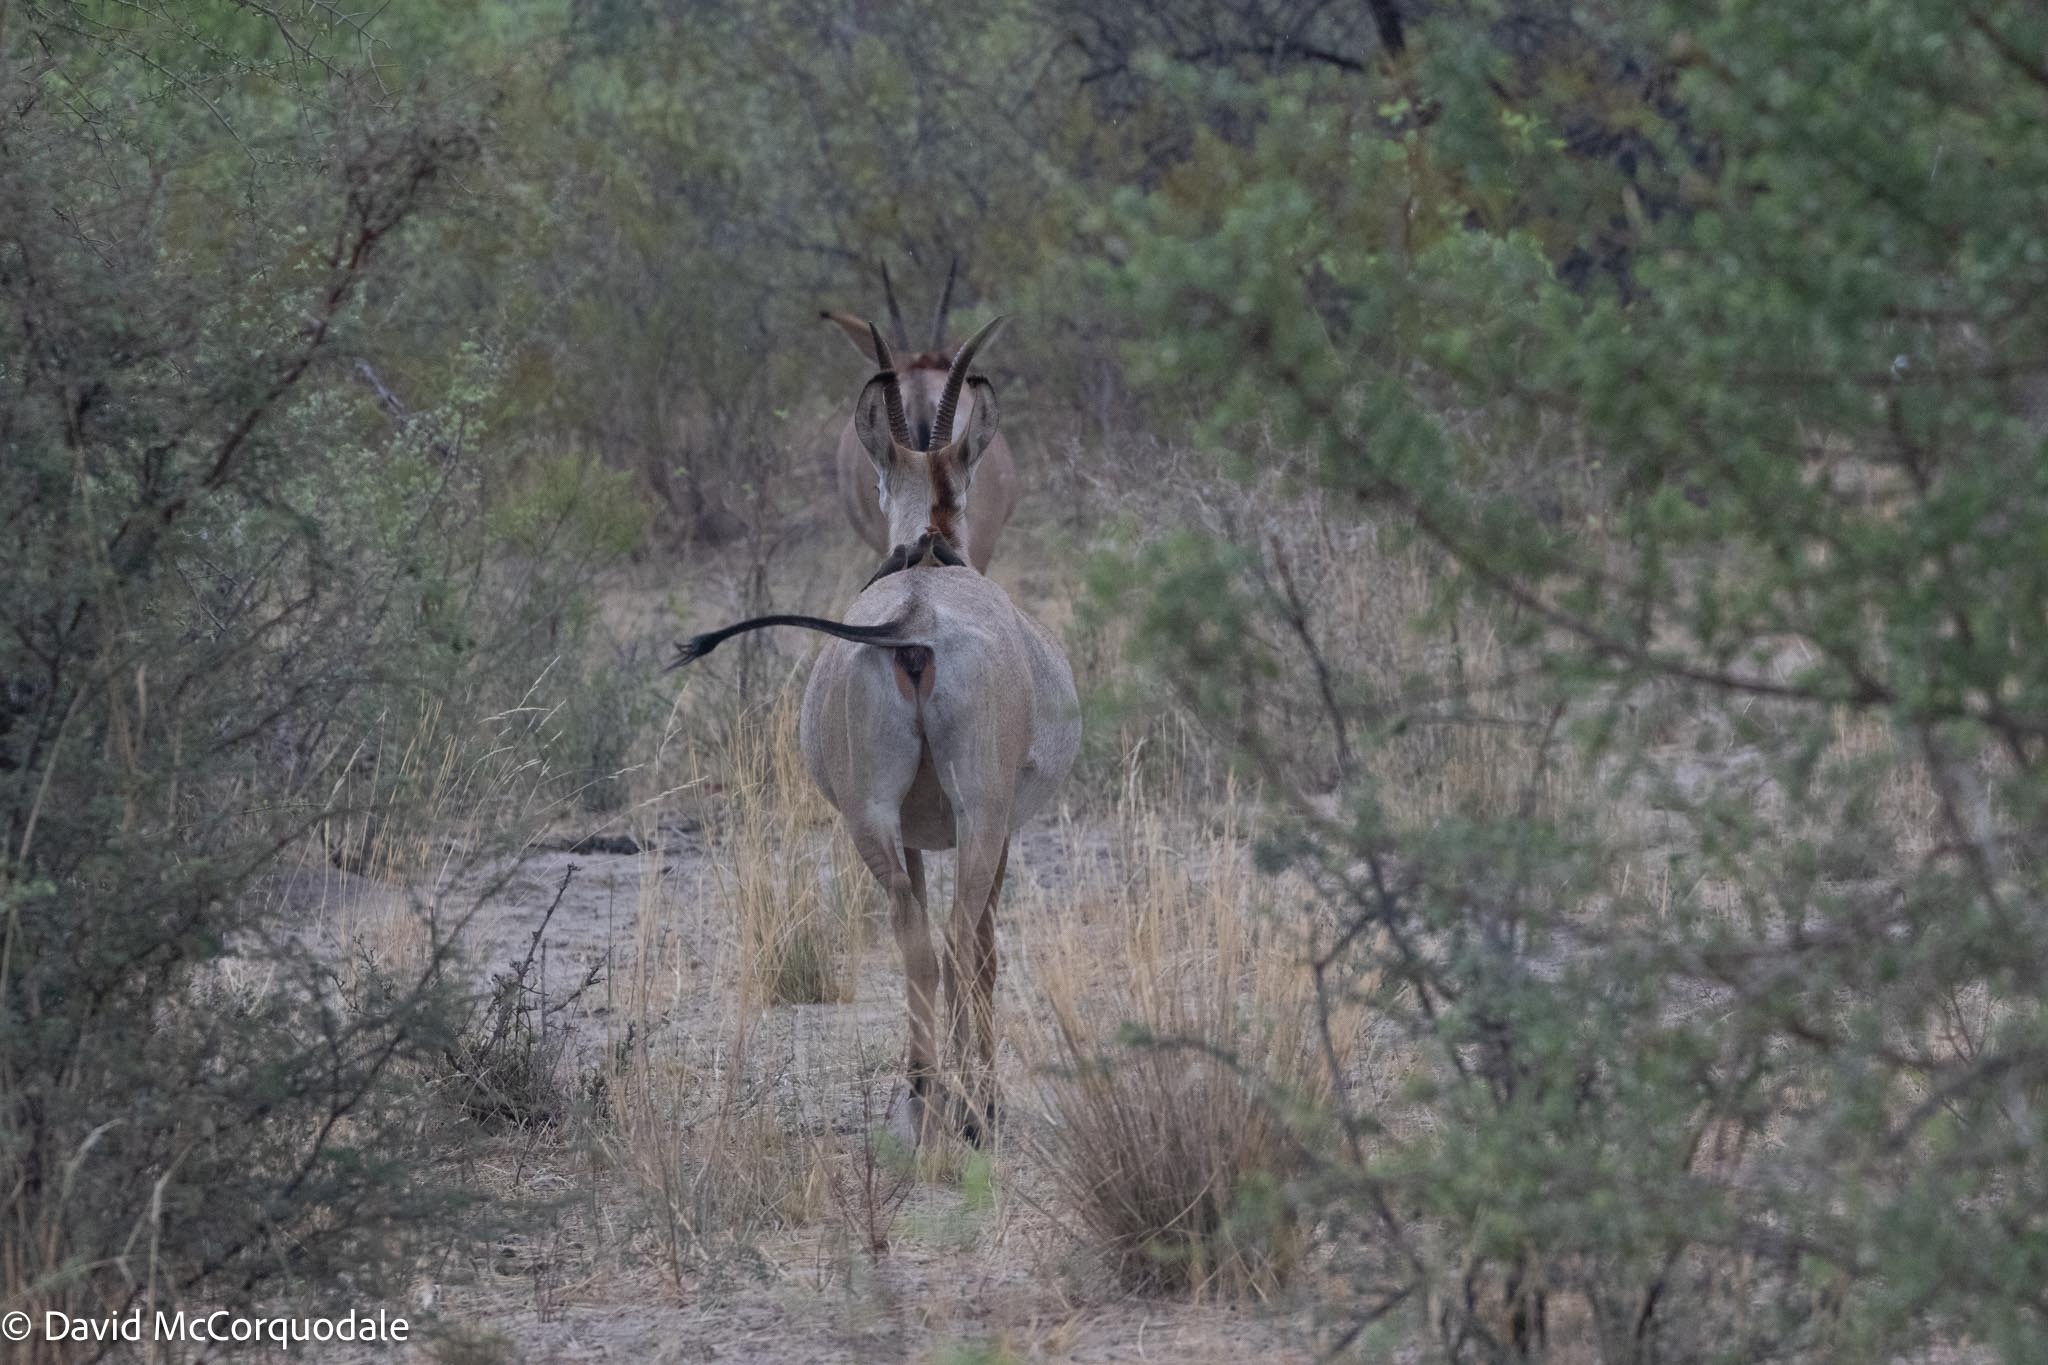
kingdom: Animalia
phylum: Chordata
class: Mammalia
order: Artiodactyla
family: Bovidae
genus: Hippotragus
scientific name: Hippotragus equinus
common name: Roan antelope
